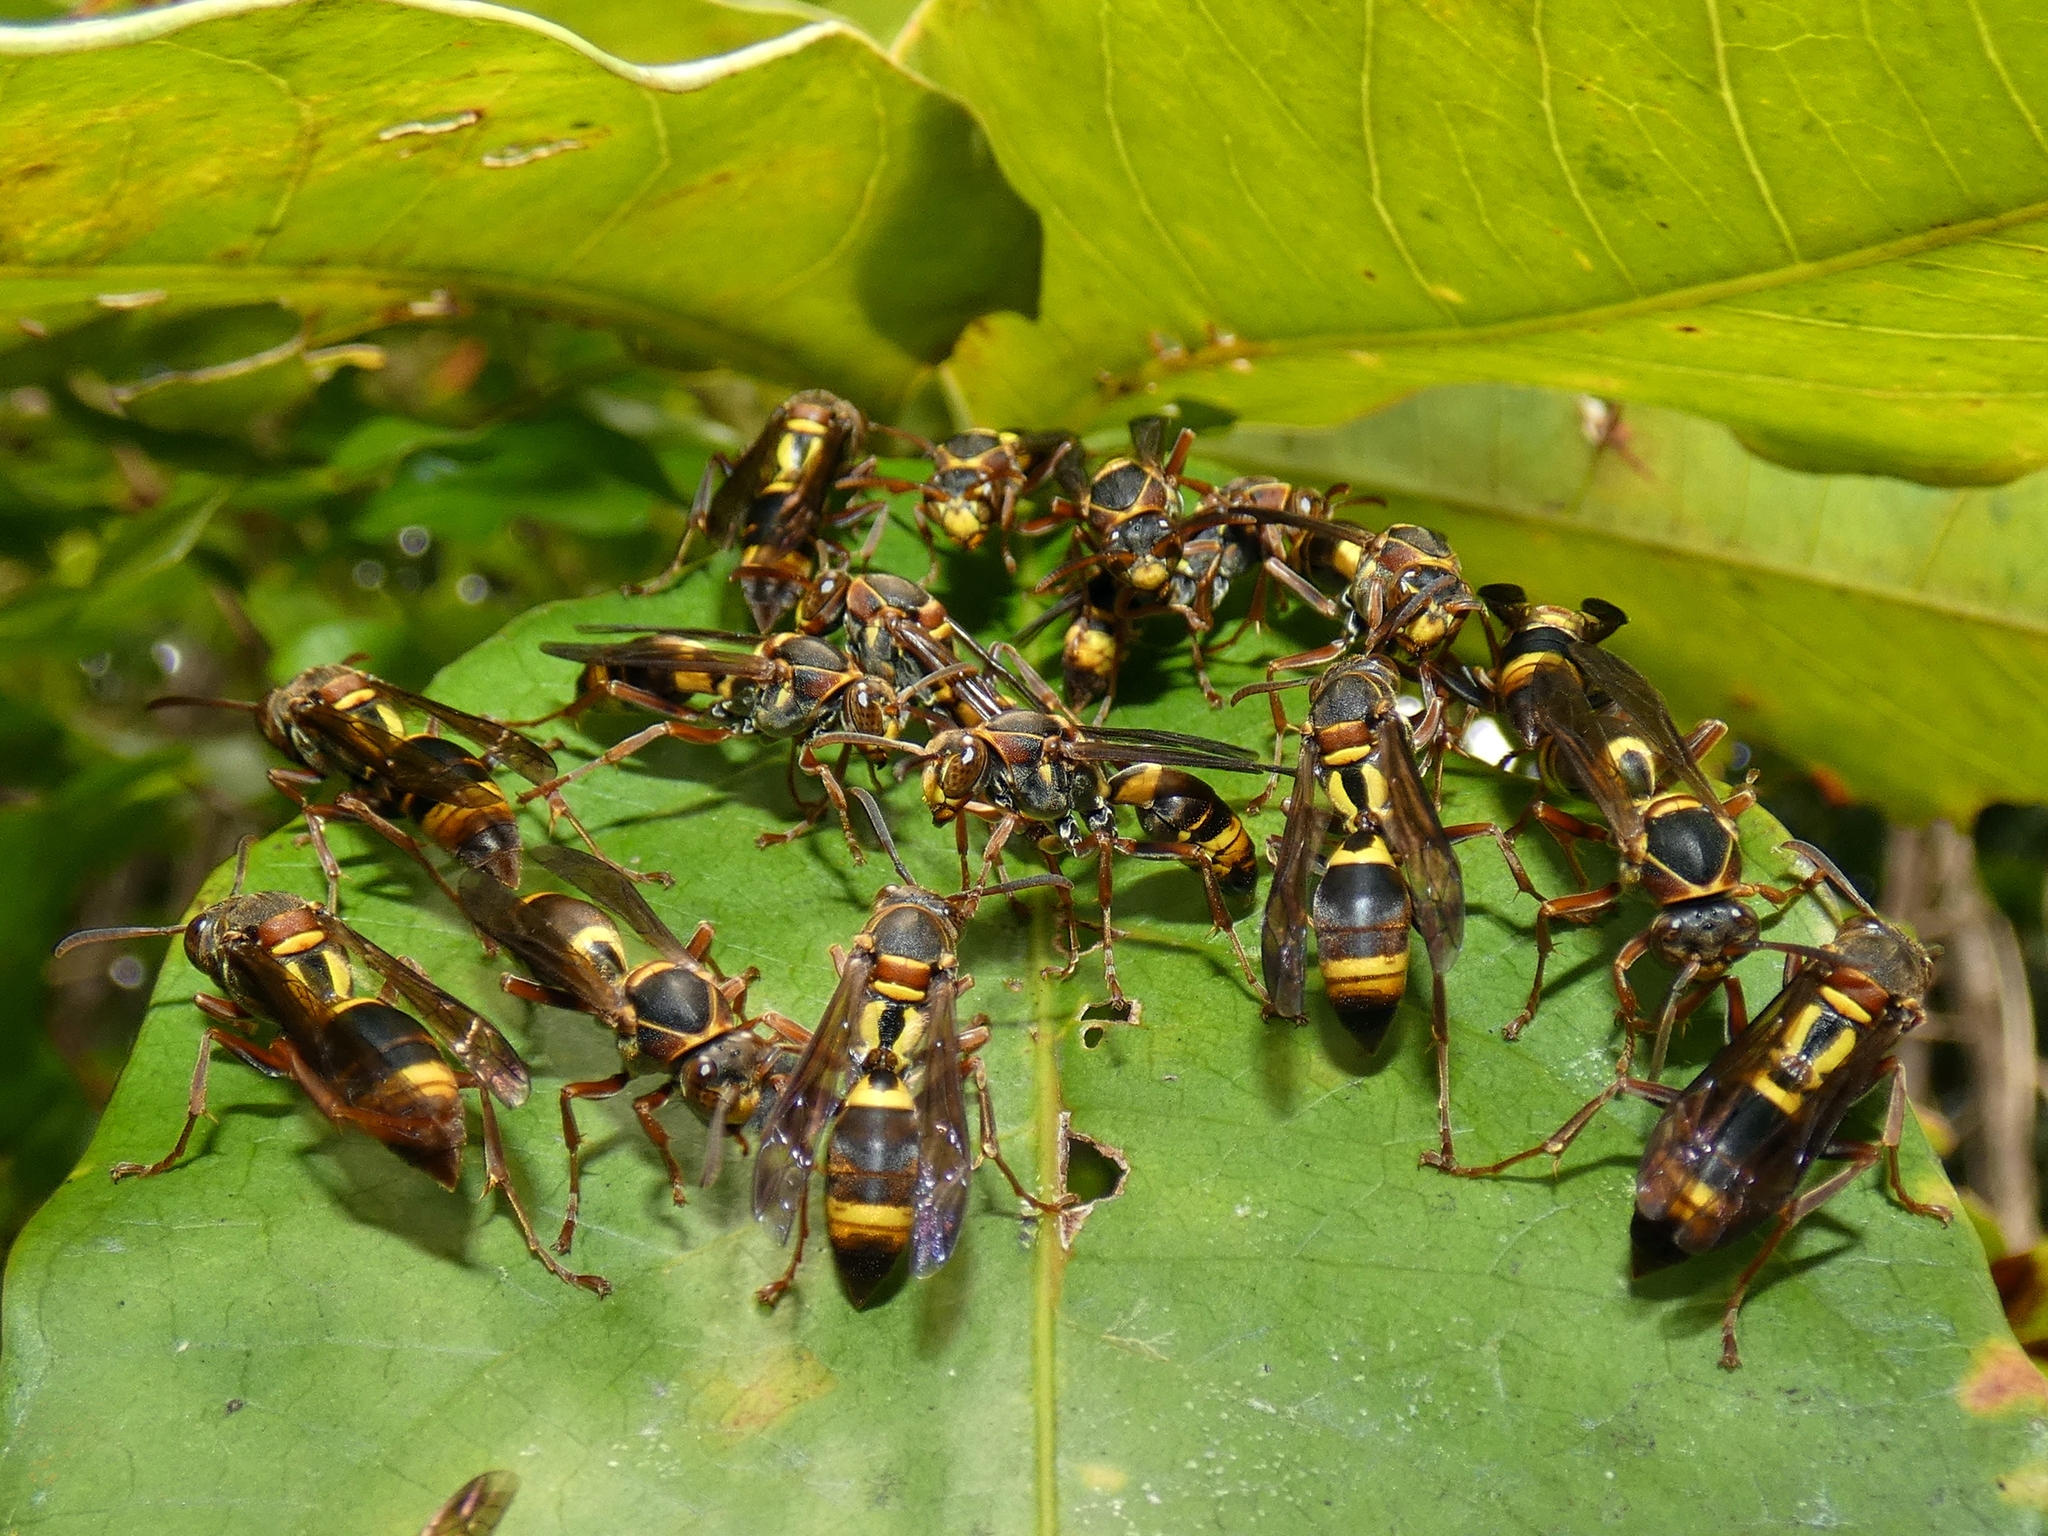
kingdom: Animalia
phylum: Arthropoda
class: Insecta
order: Hymenoptera
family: Eumenidae
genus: Polistes
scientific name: Polistes humilis
